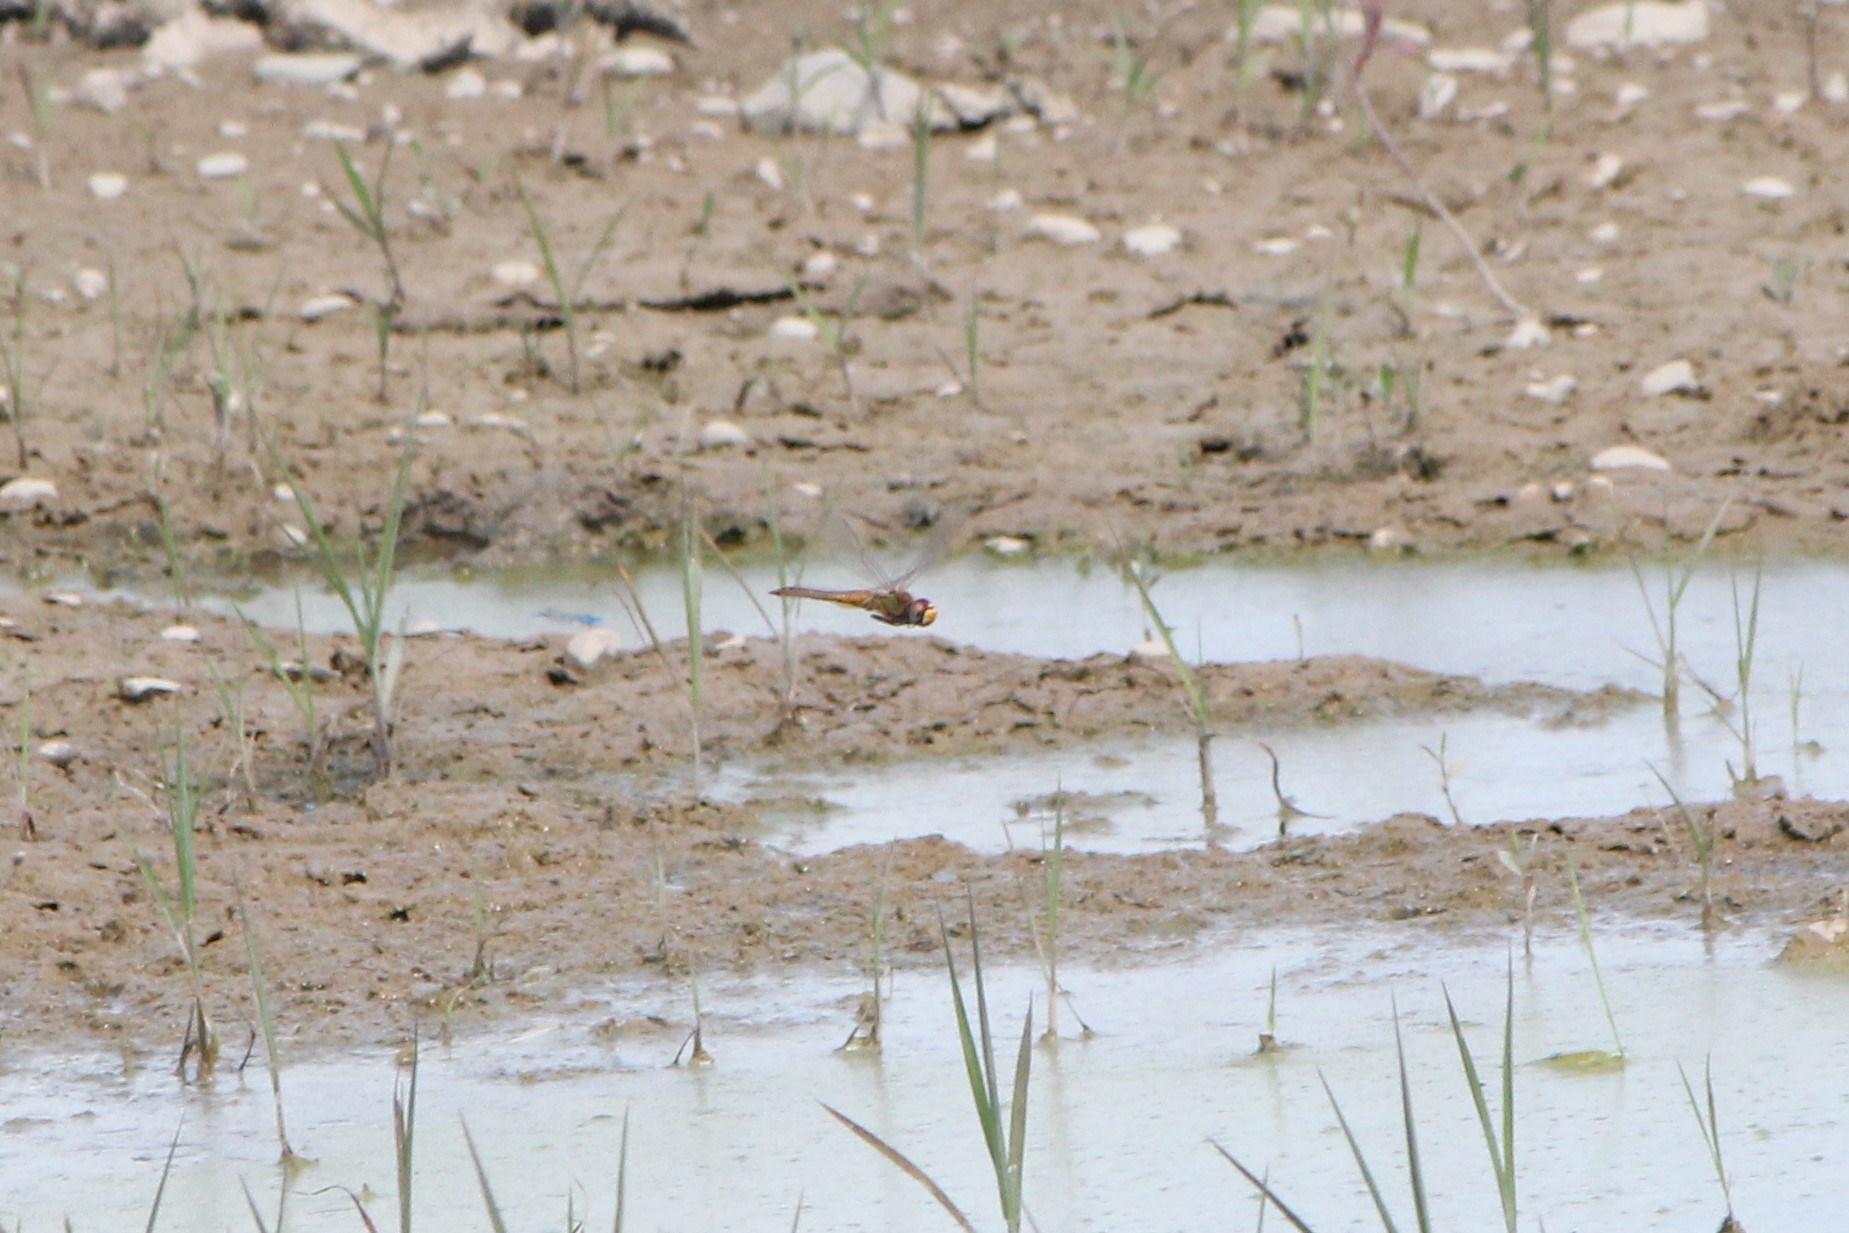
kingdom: Animalia
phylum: Arthropoda
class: Insecta
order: Odonata
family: Libellulidae
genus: Pantala
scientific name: Pantala flavescens
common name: Wandering glider
